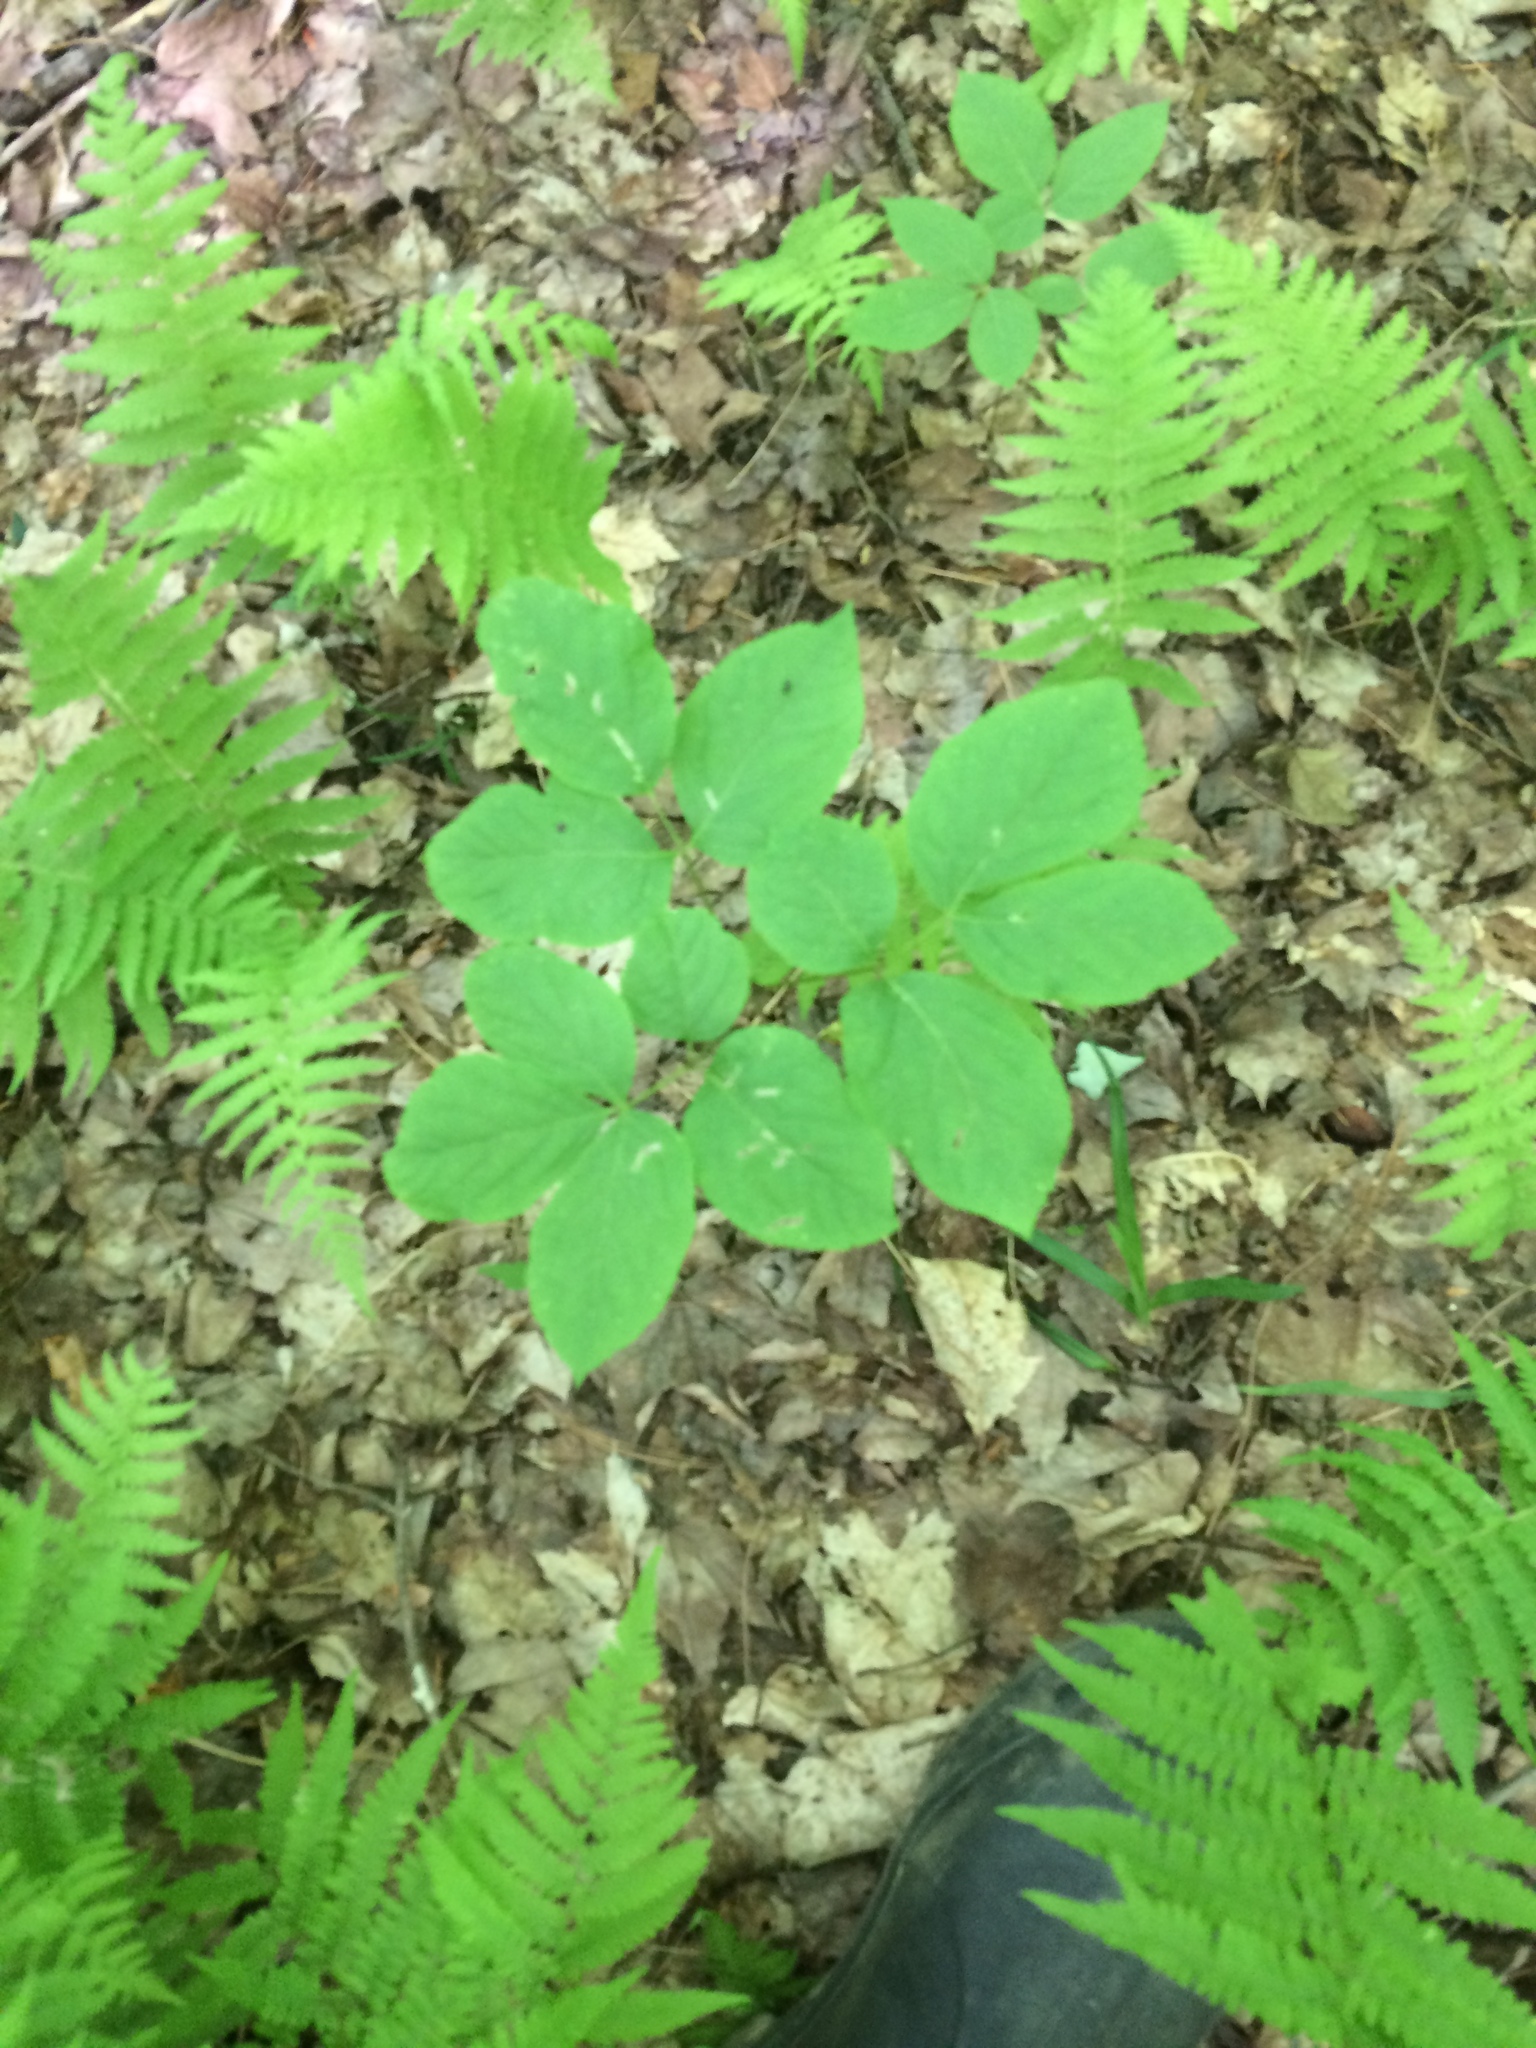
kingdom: Plantae
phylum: Tracheophyta
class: Magnoliopsida
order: Apiales
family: Araliaceae
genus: Aralia
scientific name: Aralia nudicaulis
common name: Wild sarsaparilla
